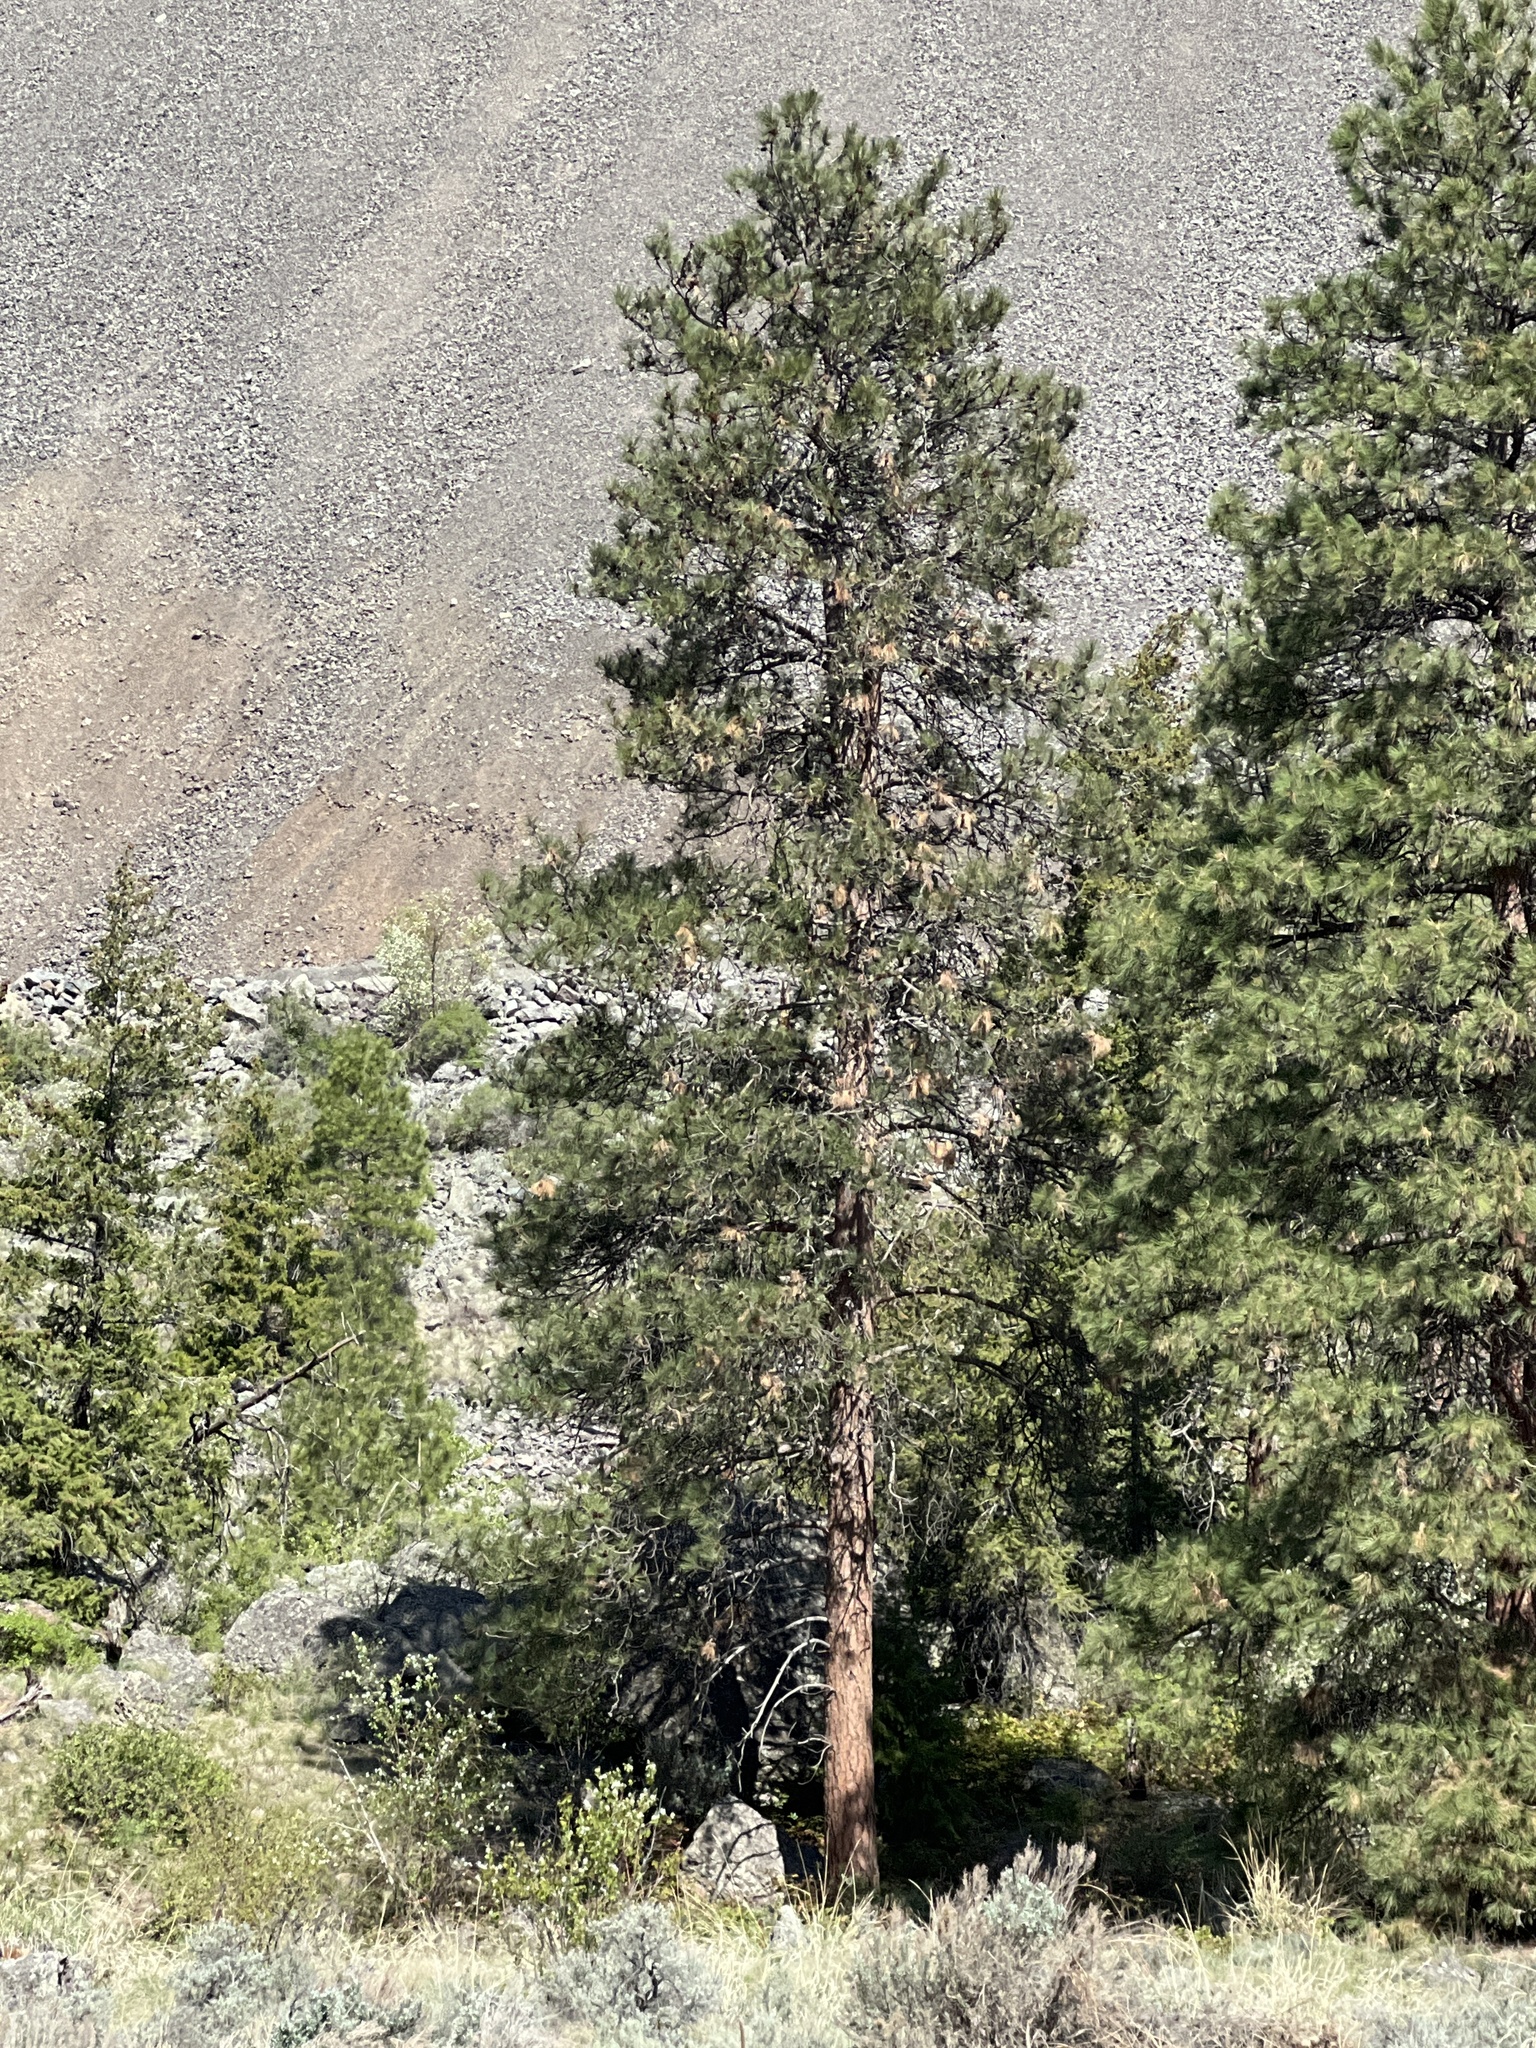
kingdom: Plantae
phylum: Tracheophyta
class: Pinopsida
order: Pinales
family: Pinaceae
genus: Pinus
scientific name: Pinus ponderosa
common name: Western yellow-pine
